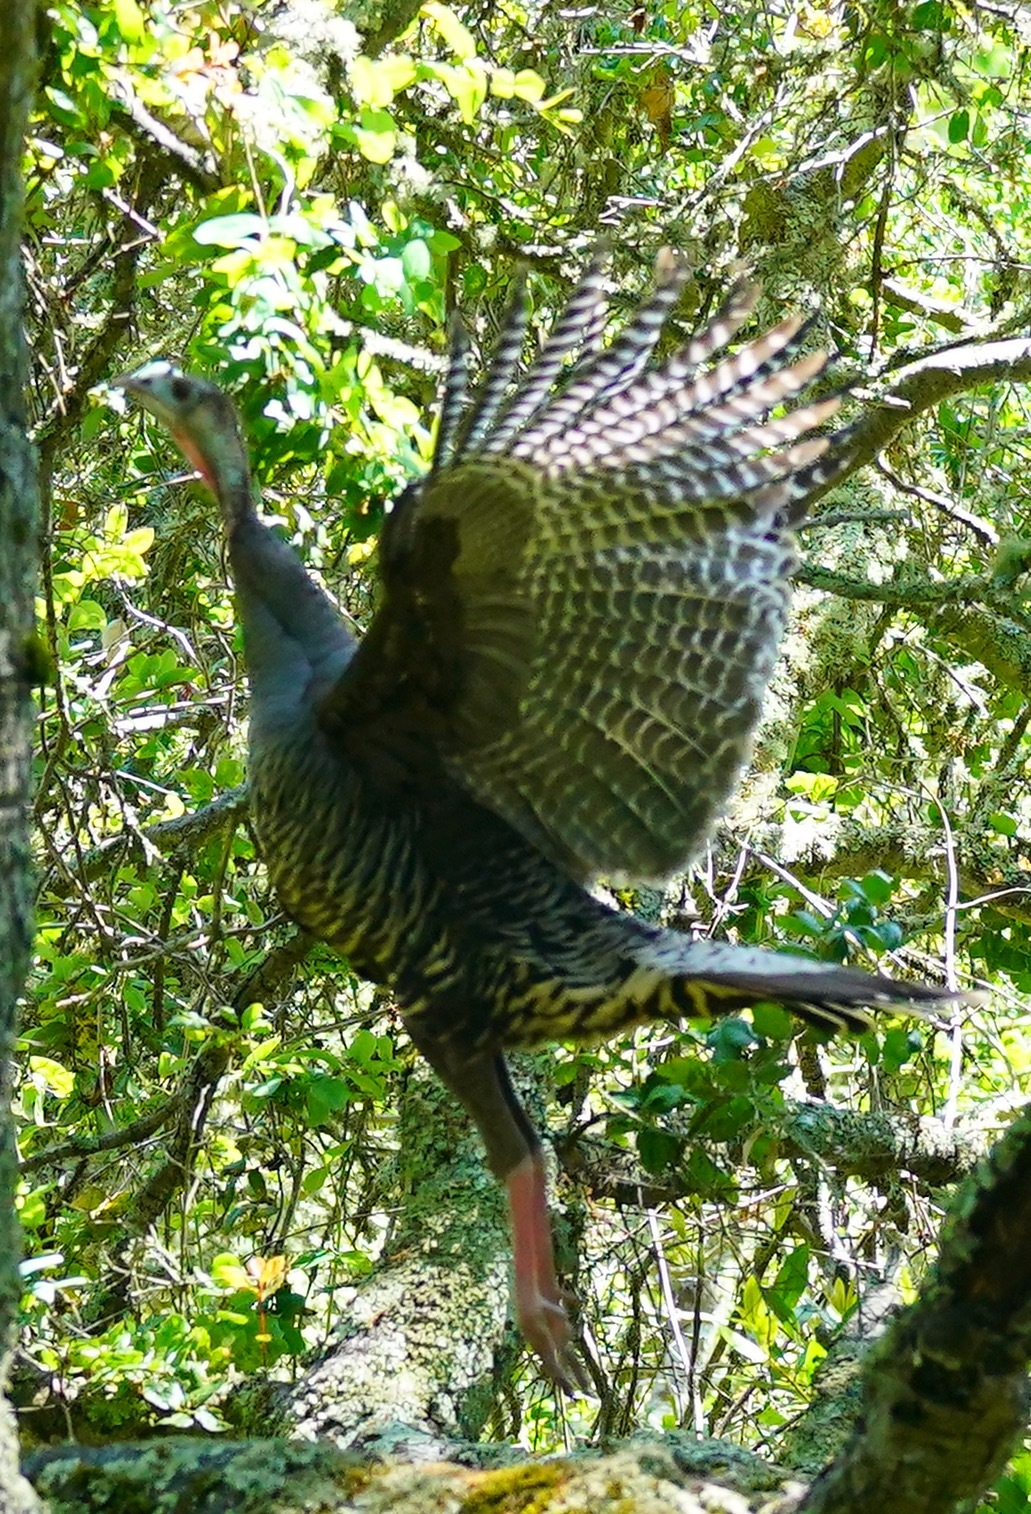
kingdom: Animalia
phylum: Chordata
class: Aves
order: Galliformes
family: Phasianidae
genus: Meleagris
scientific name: Meleagris gallopavo
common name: Wild turkey
